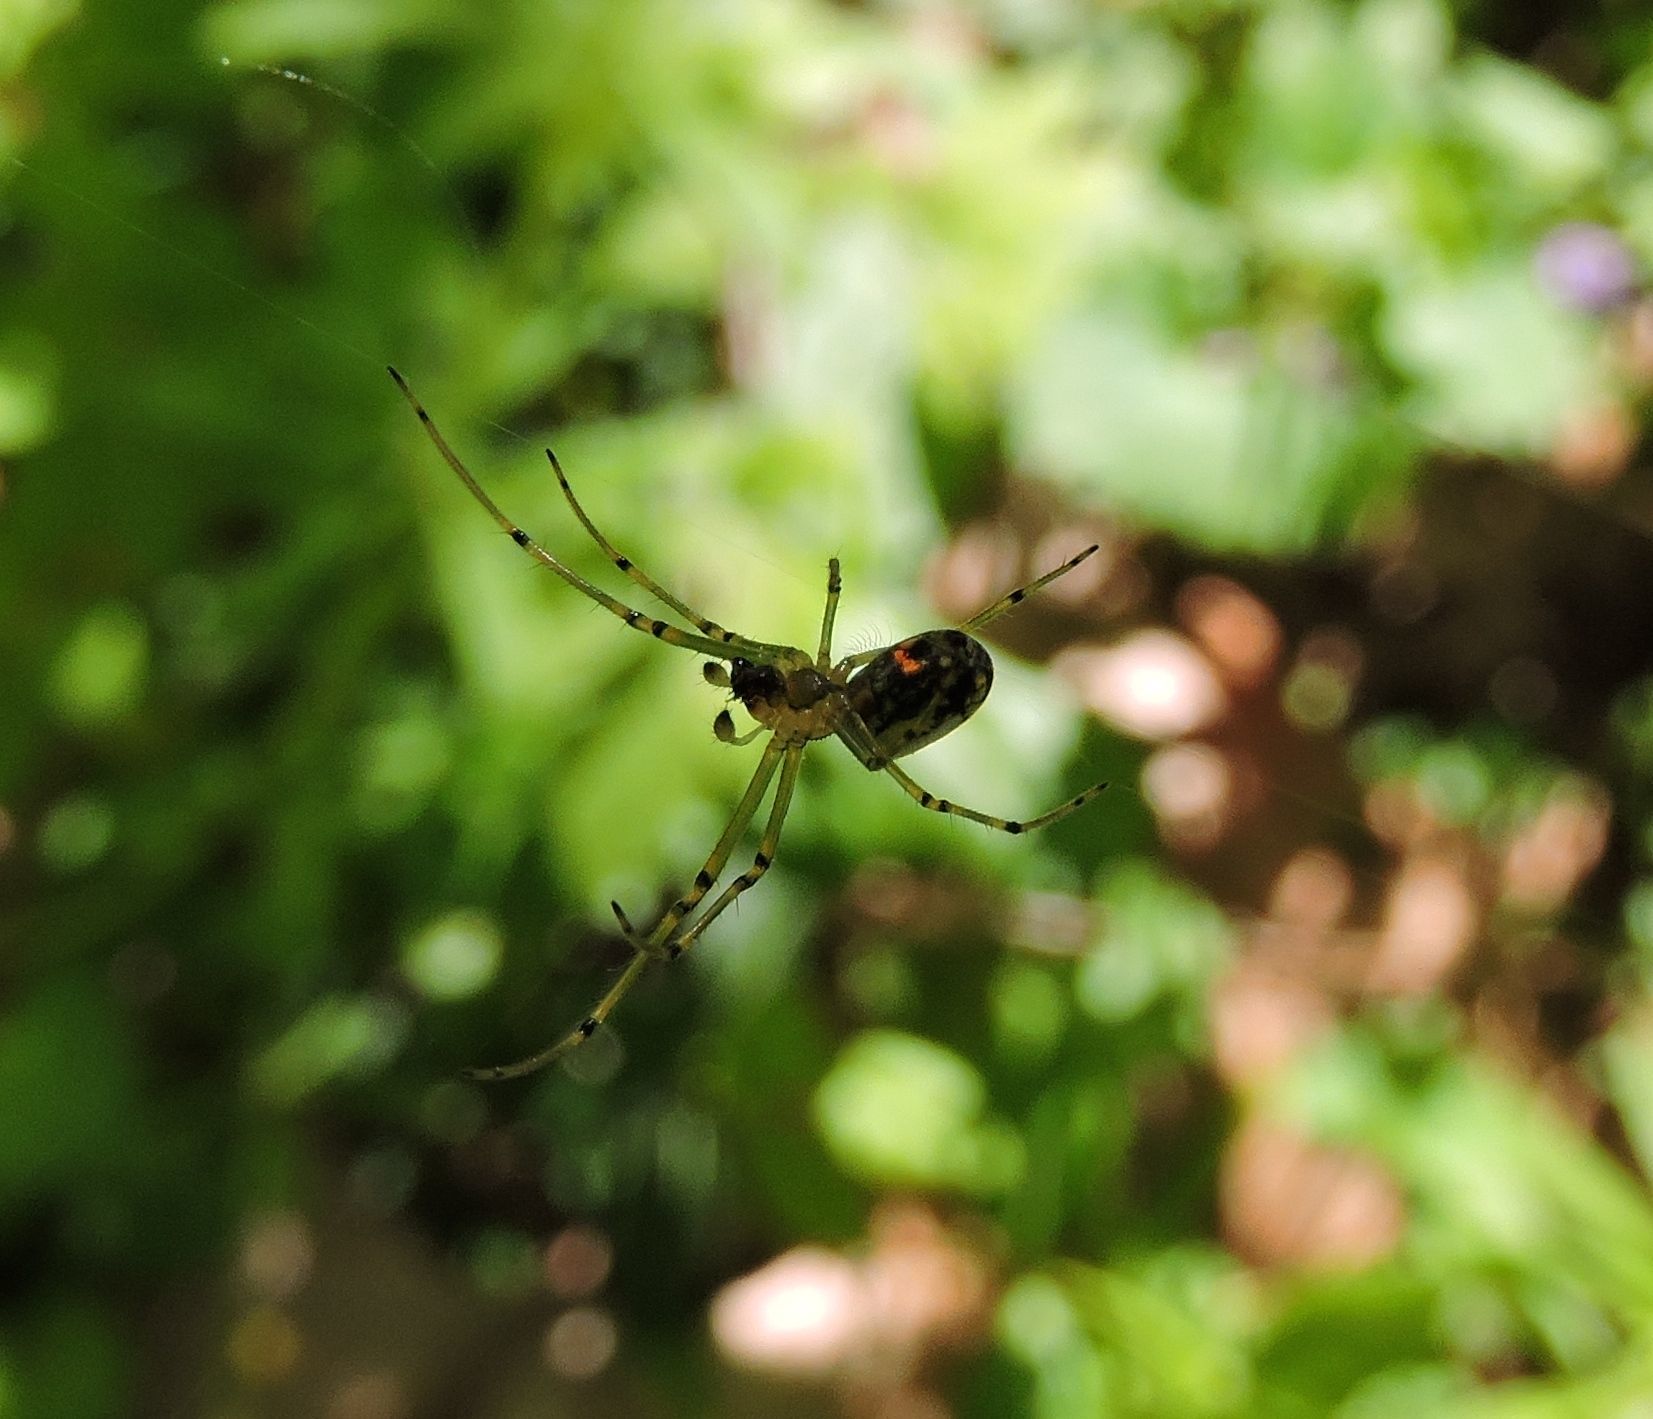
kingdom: Animalia
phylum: Arthropoda
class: Arachnida
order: Araneae
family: Tetragnathidae
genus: Leucauge
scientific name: Leucauge venusta
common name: Longjawed orb weavers
